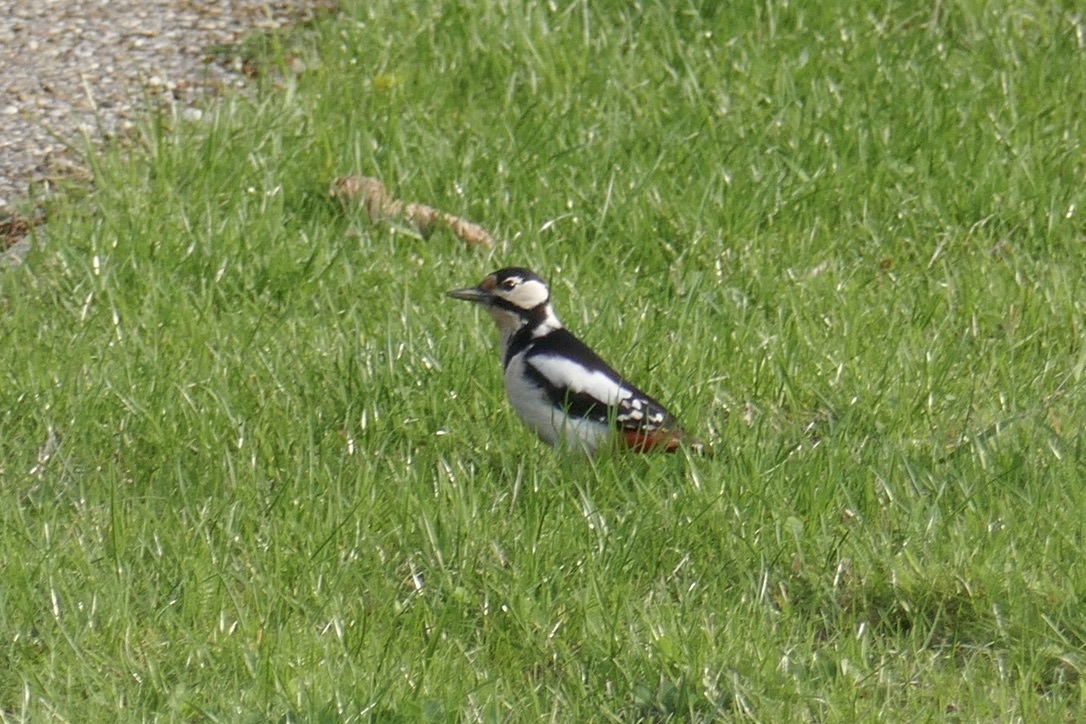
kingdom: Animalia
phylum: Chordata
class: Aves
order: Piciformes
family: Picidae
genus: Dendrocopos
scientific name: Dendrocopos major
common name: Great spotted woodpecker
